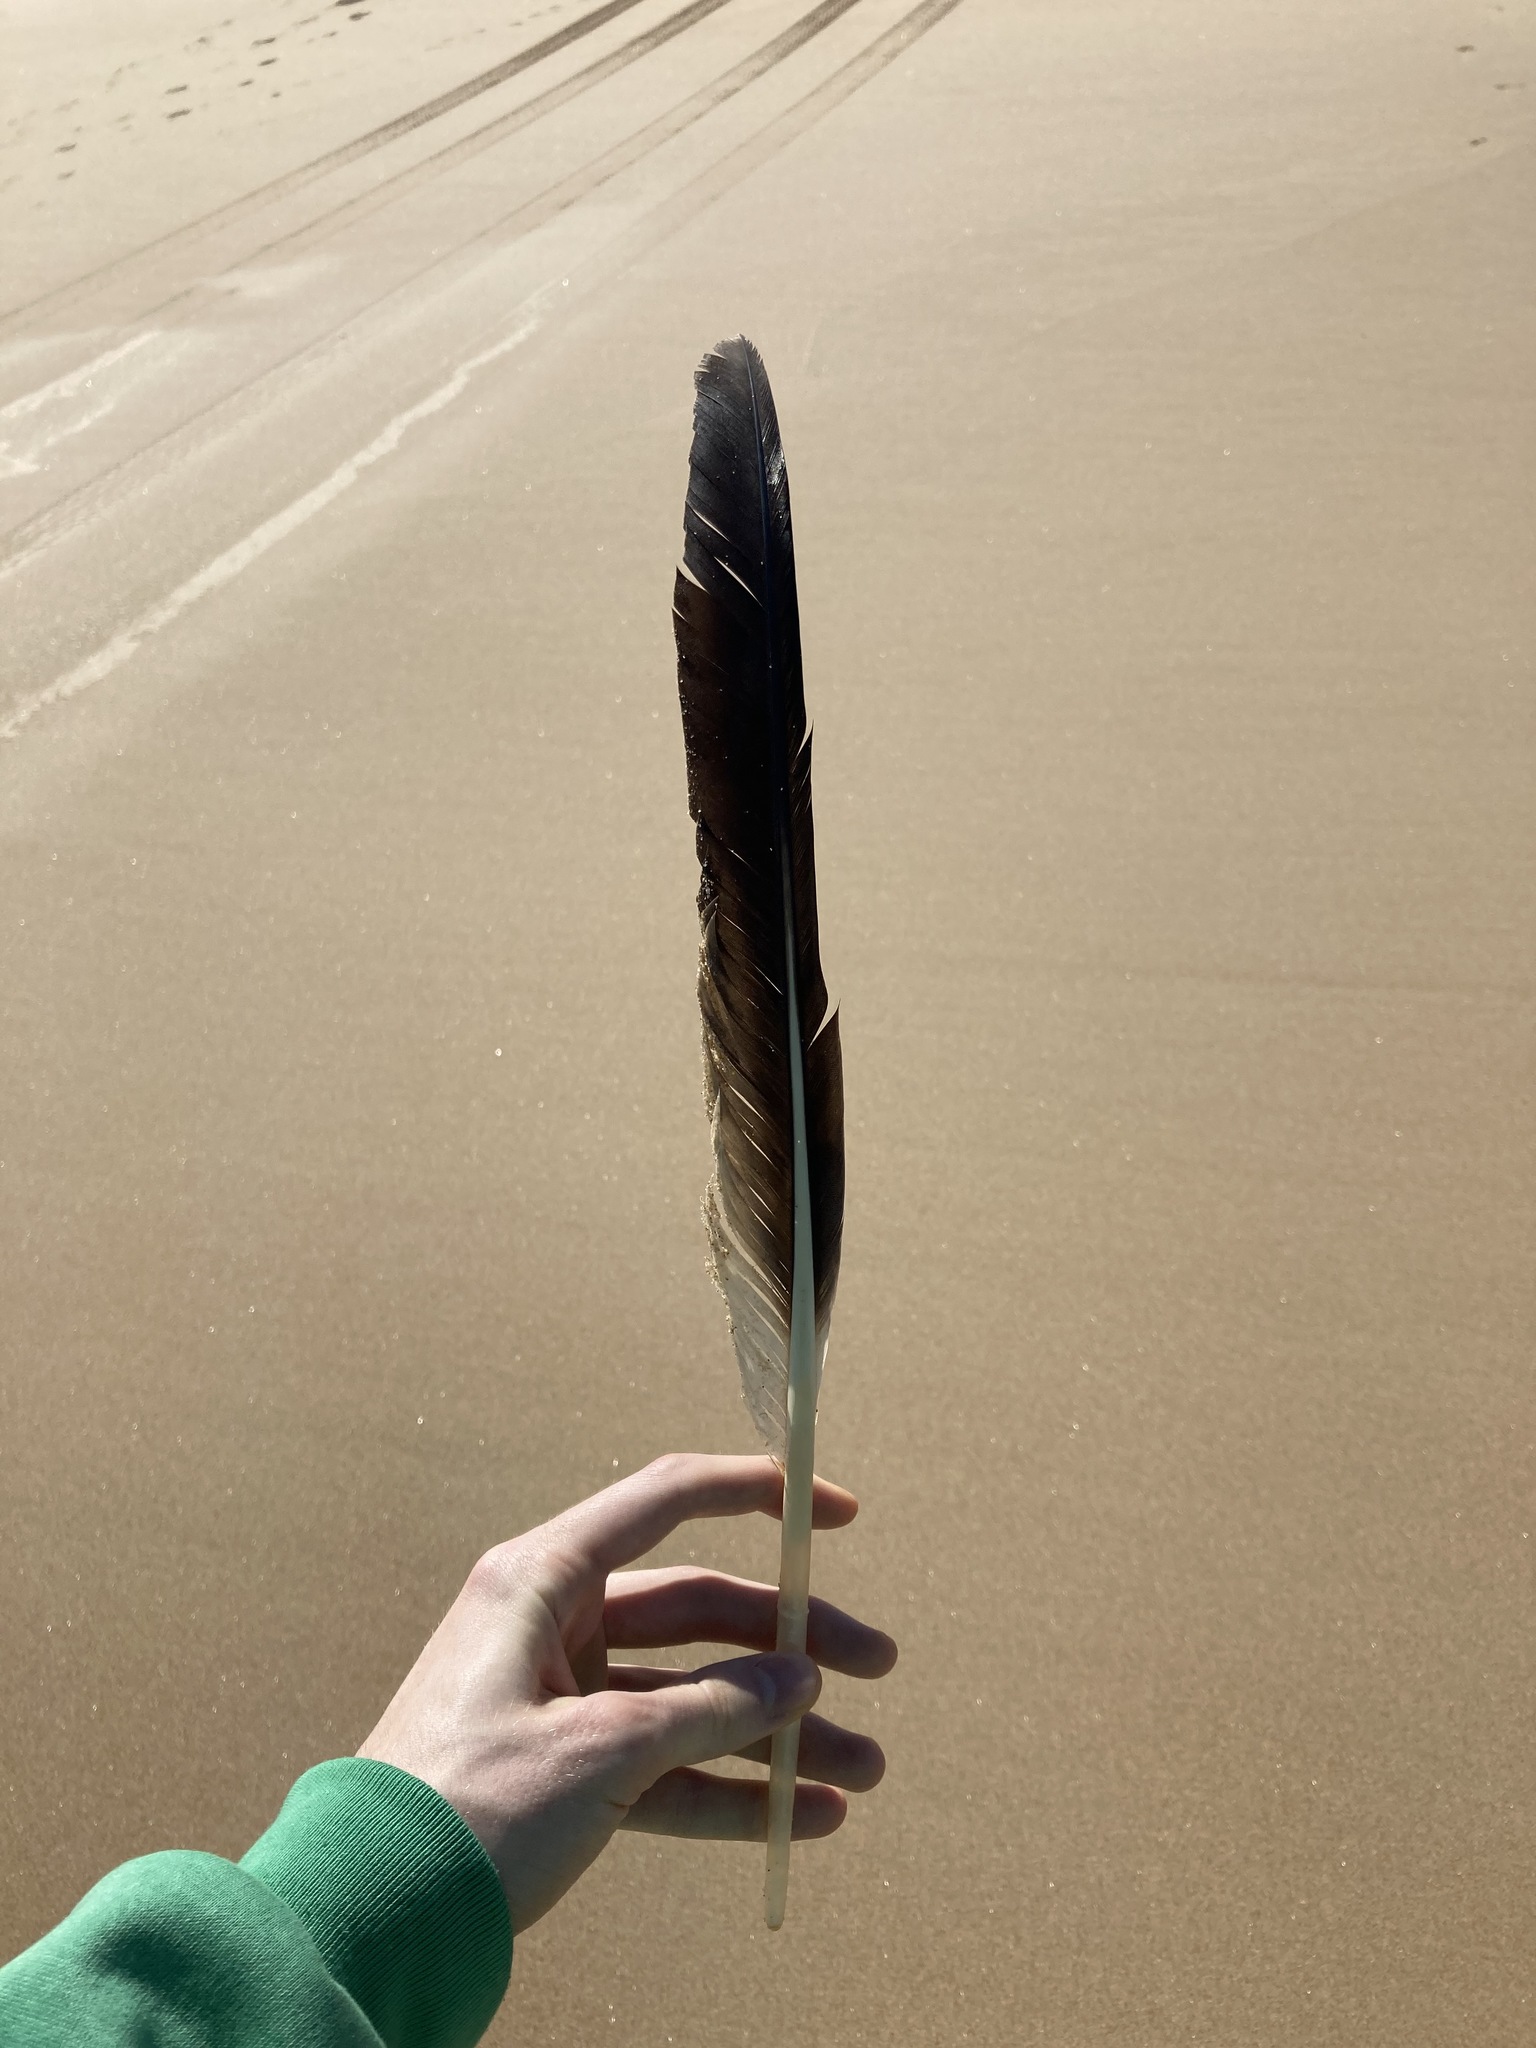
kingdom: Animalia
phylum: Chordata
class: Aves
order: Pelecaniformes
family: Pelecanidae
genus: Pelecanus
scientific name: Pelecanus conspicillatus
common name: Australian pelican
